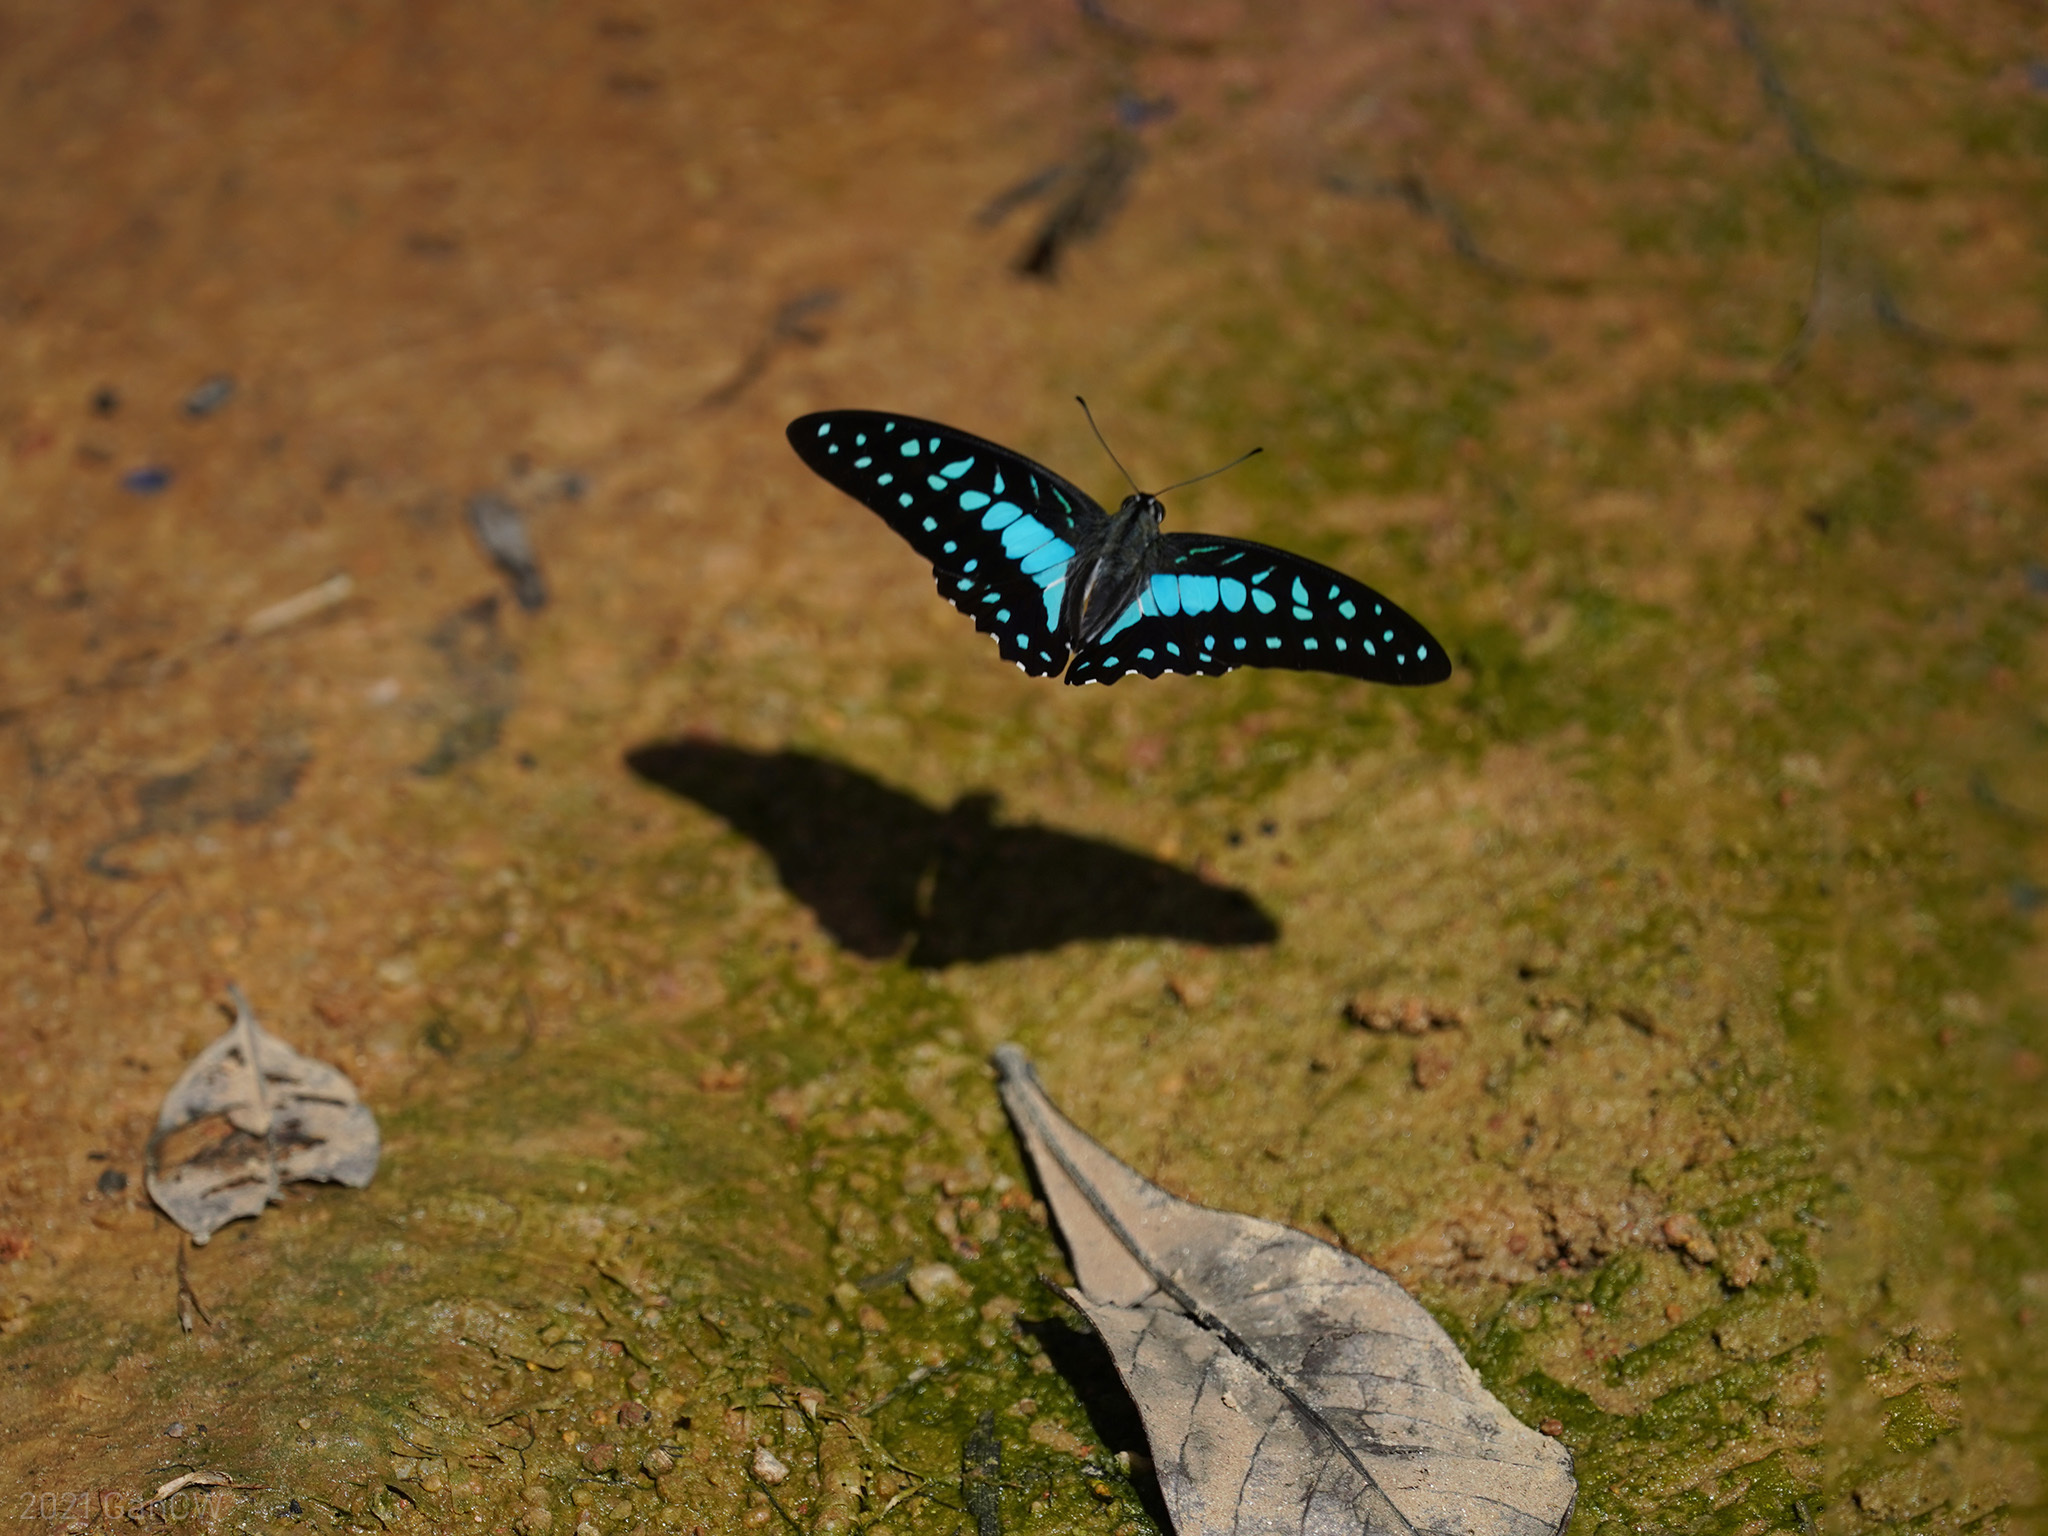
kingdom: Animalia
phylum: Arthropoda
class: Insecta
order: Lepidoptera
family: Papilionidae
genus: Graphium
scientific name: Graphium evemon
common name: Lesser jay
